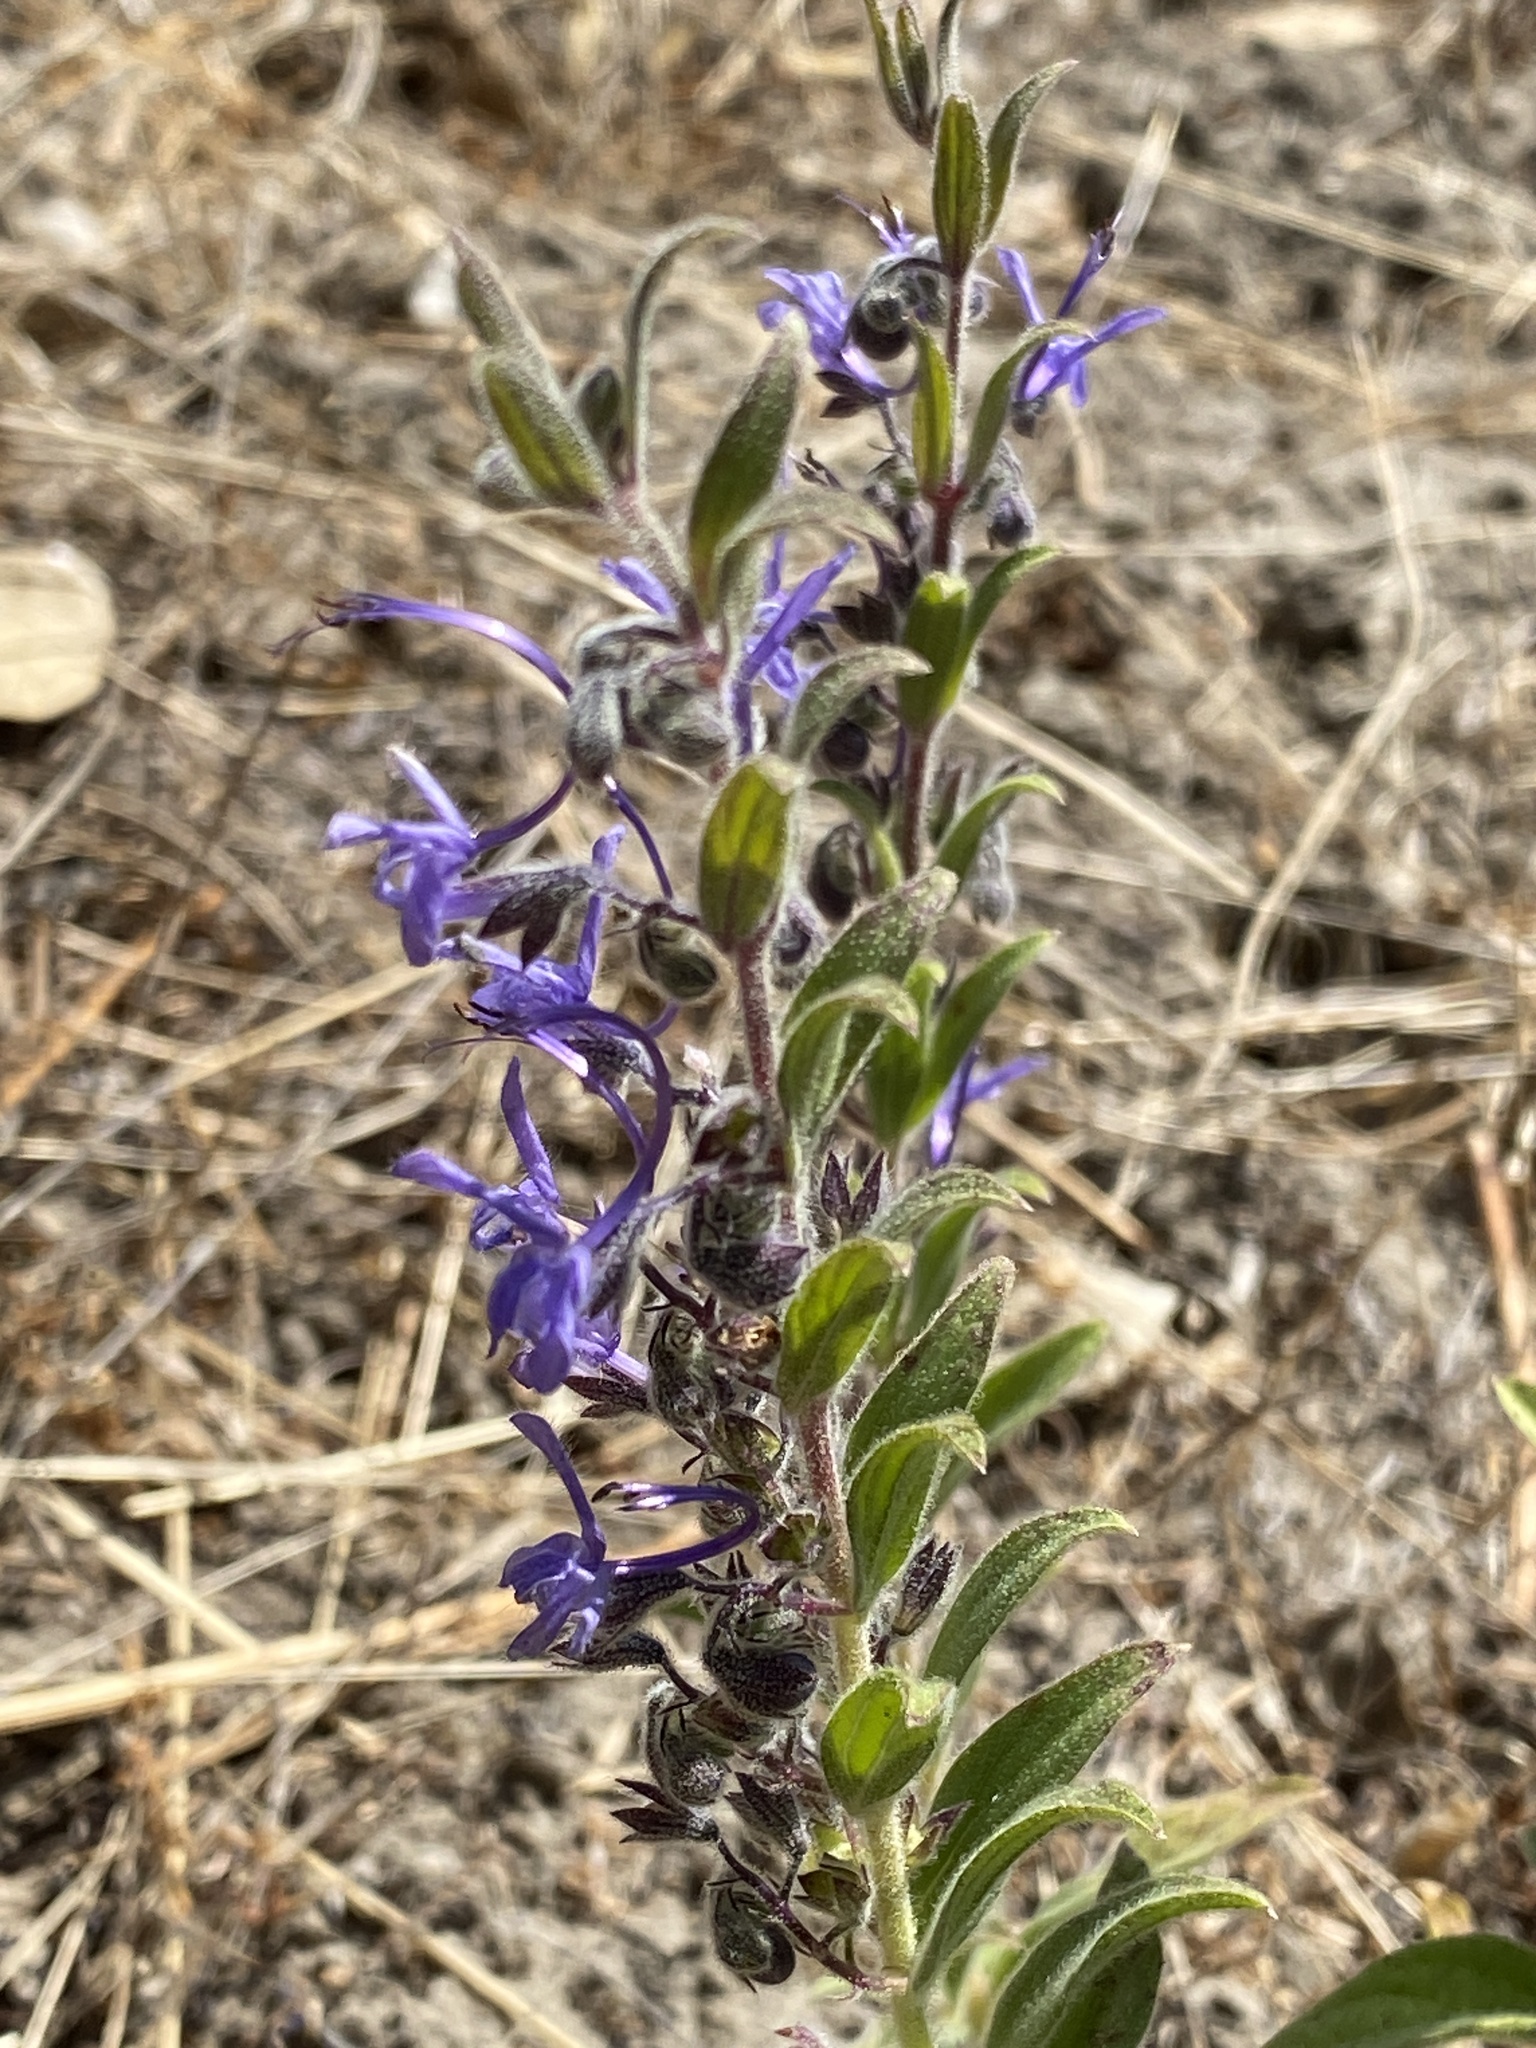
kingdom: Plantae
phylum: Tracheophyta
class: Magnoliopsida
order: Lamiales
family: Lamiaceae
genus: Trichostema
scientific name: Trichostema lanceolatum
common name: Vinegar-weed
